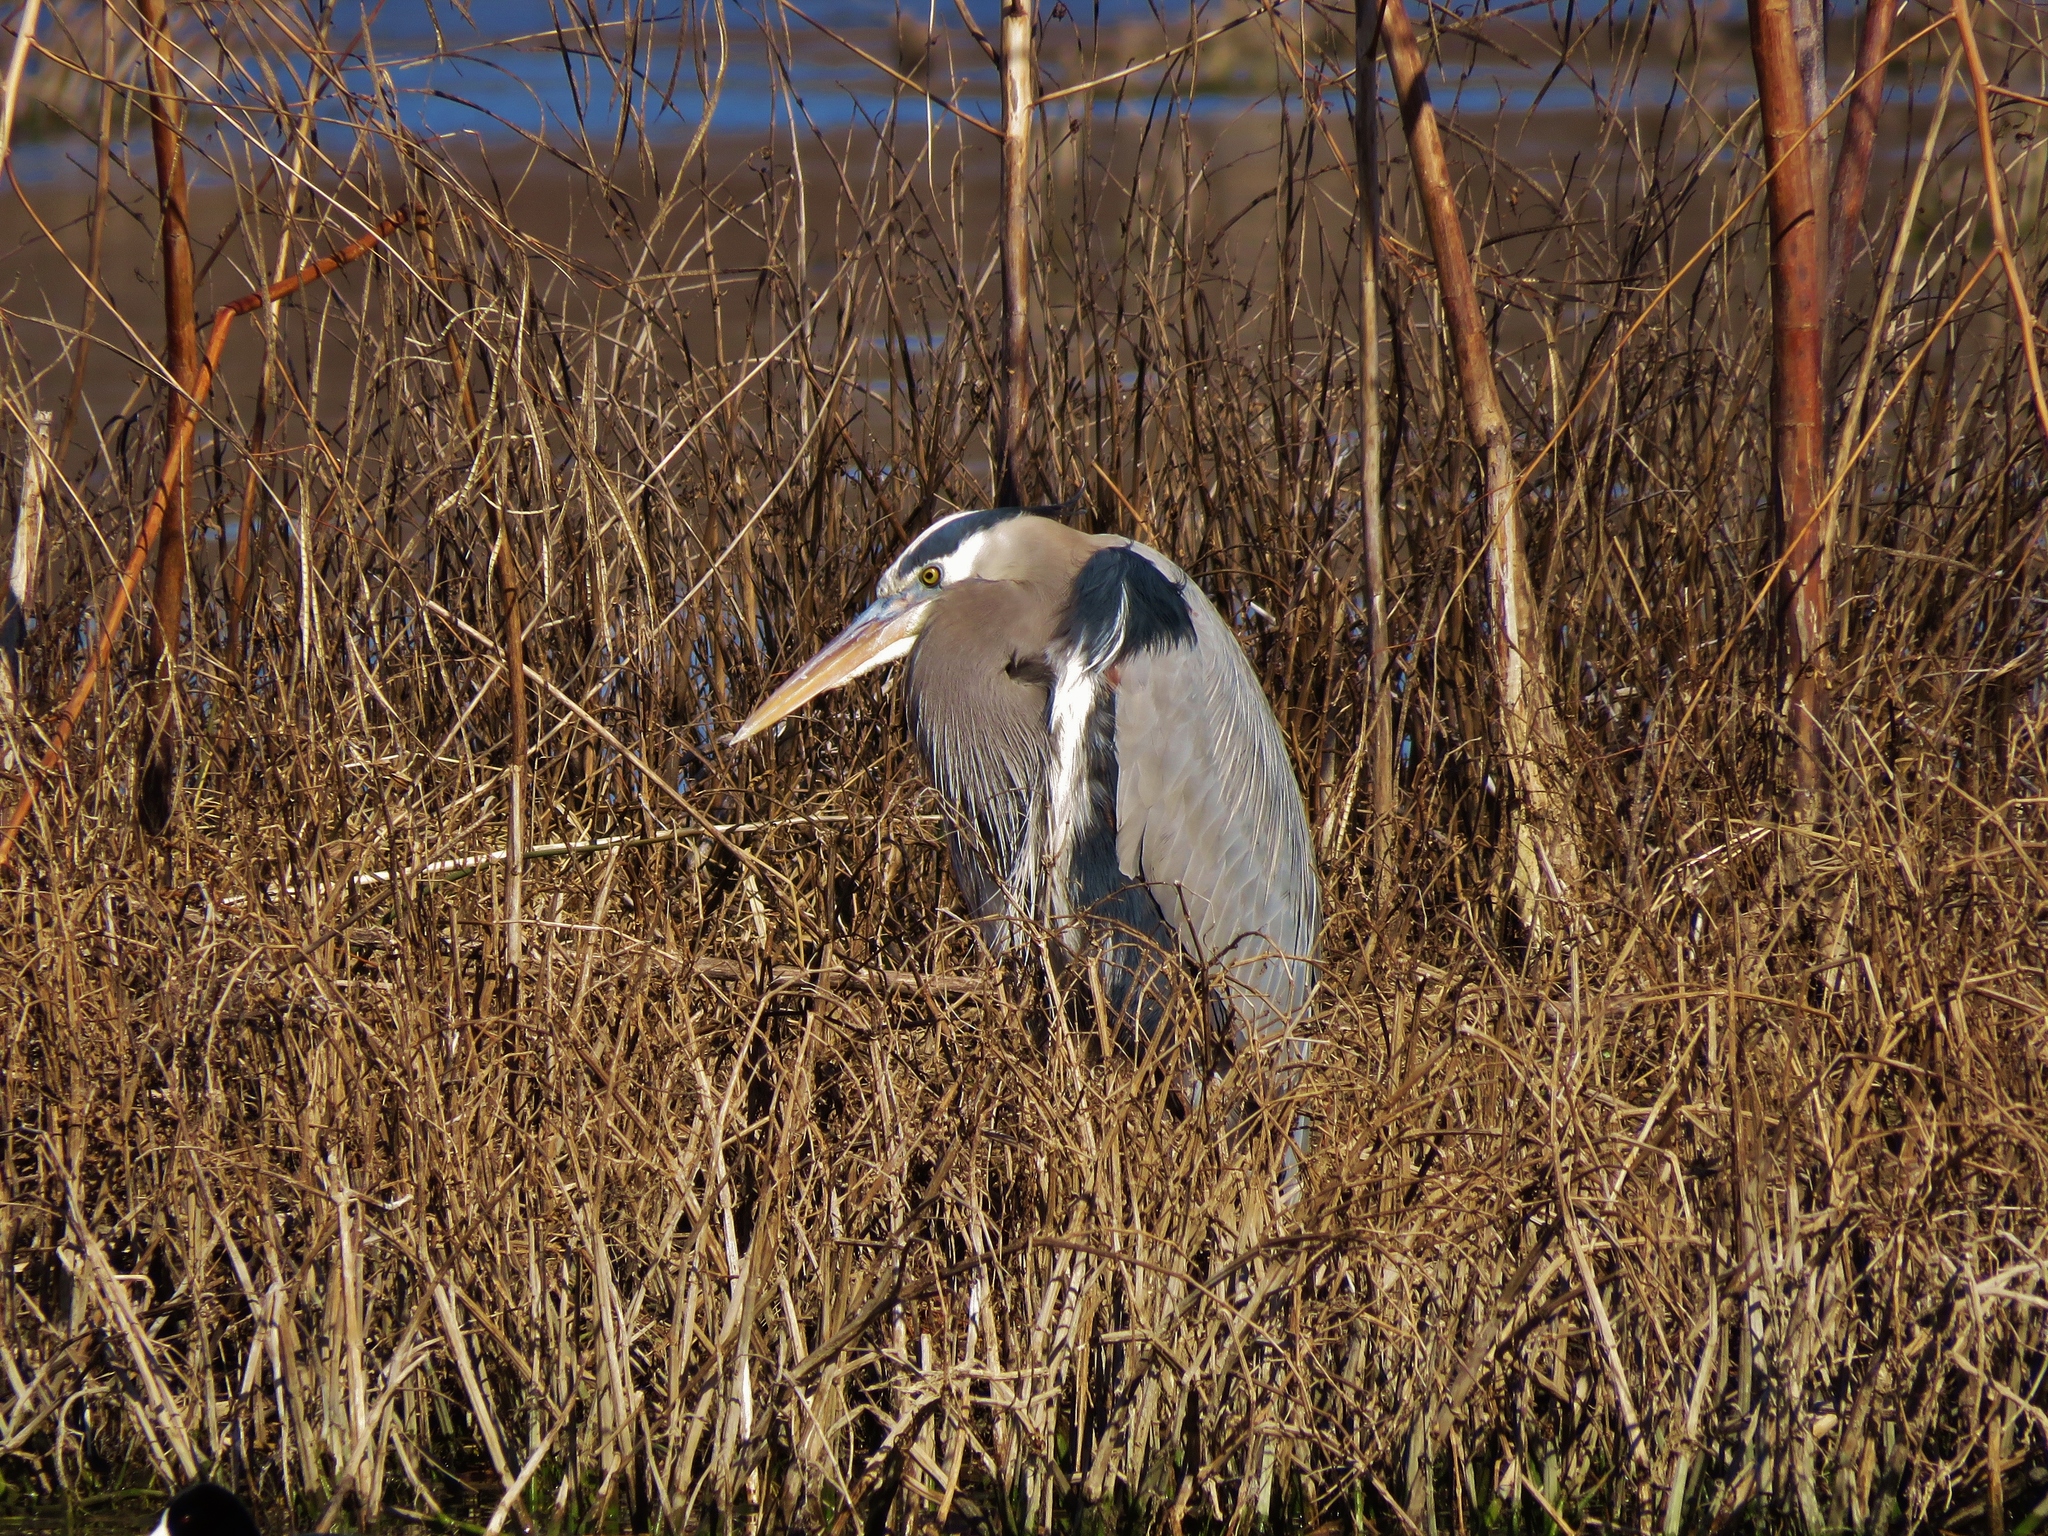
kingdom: Animalia
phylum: Chordata
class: Aves
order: Pelecaniformes
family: Ardeidae
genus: Ardea
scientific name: Ardea herodias
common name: Great blue heron
